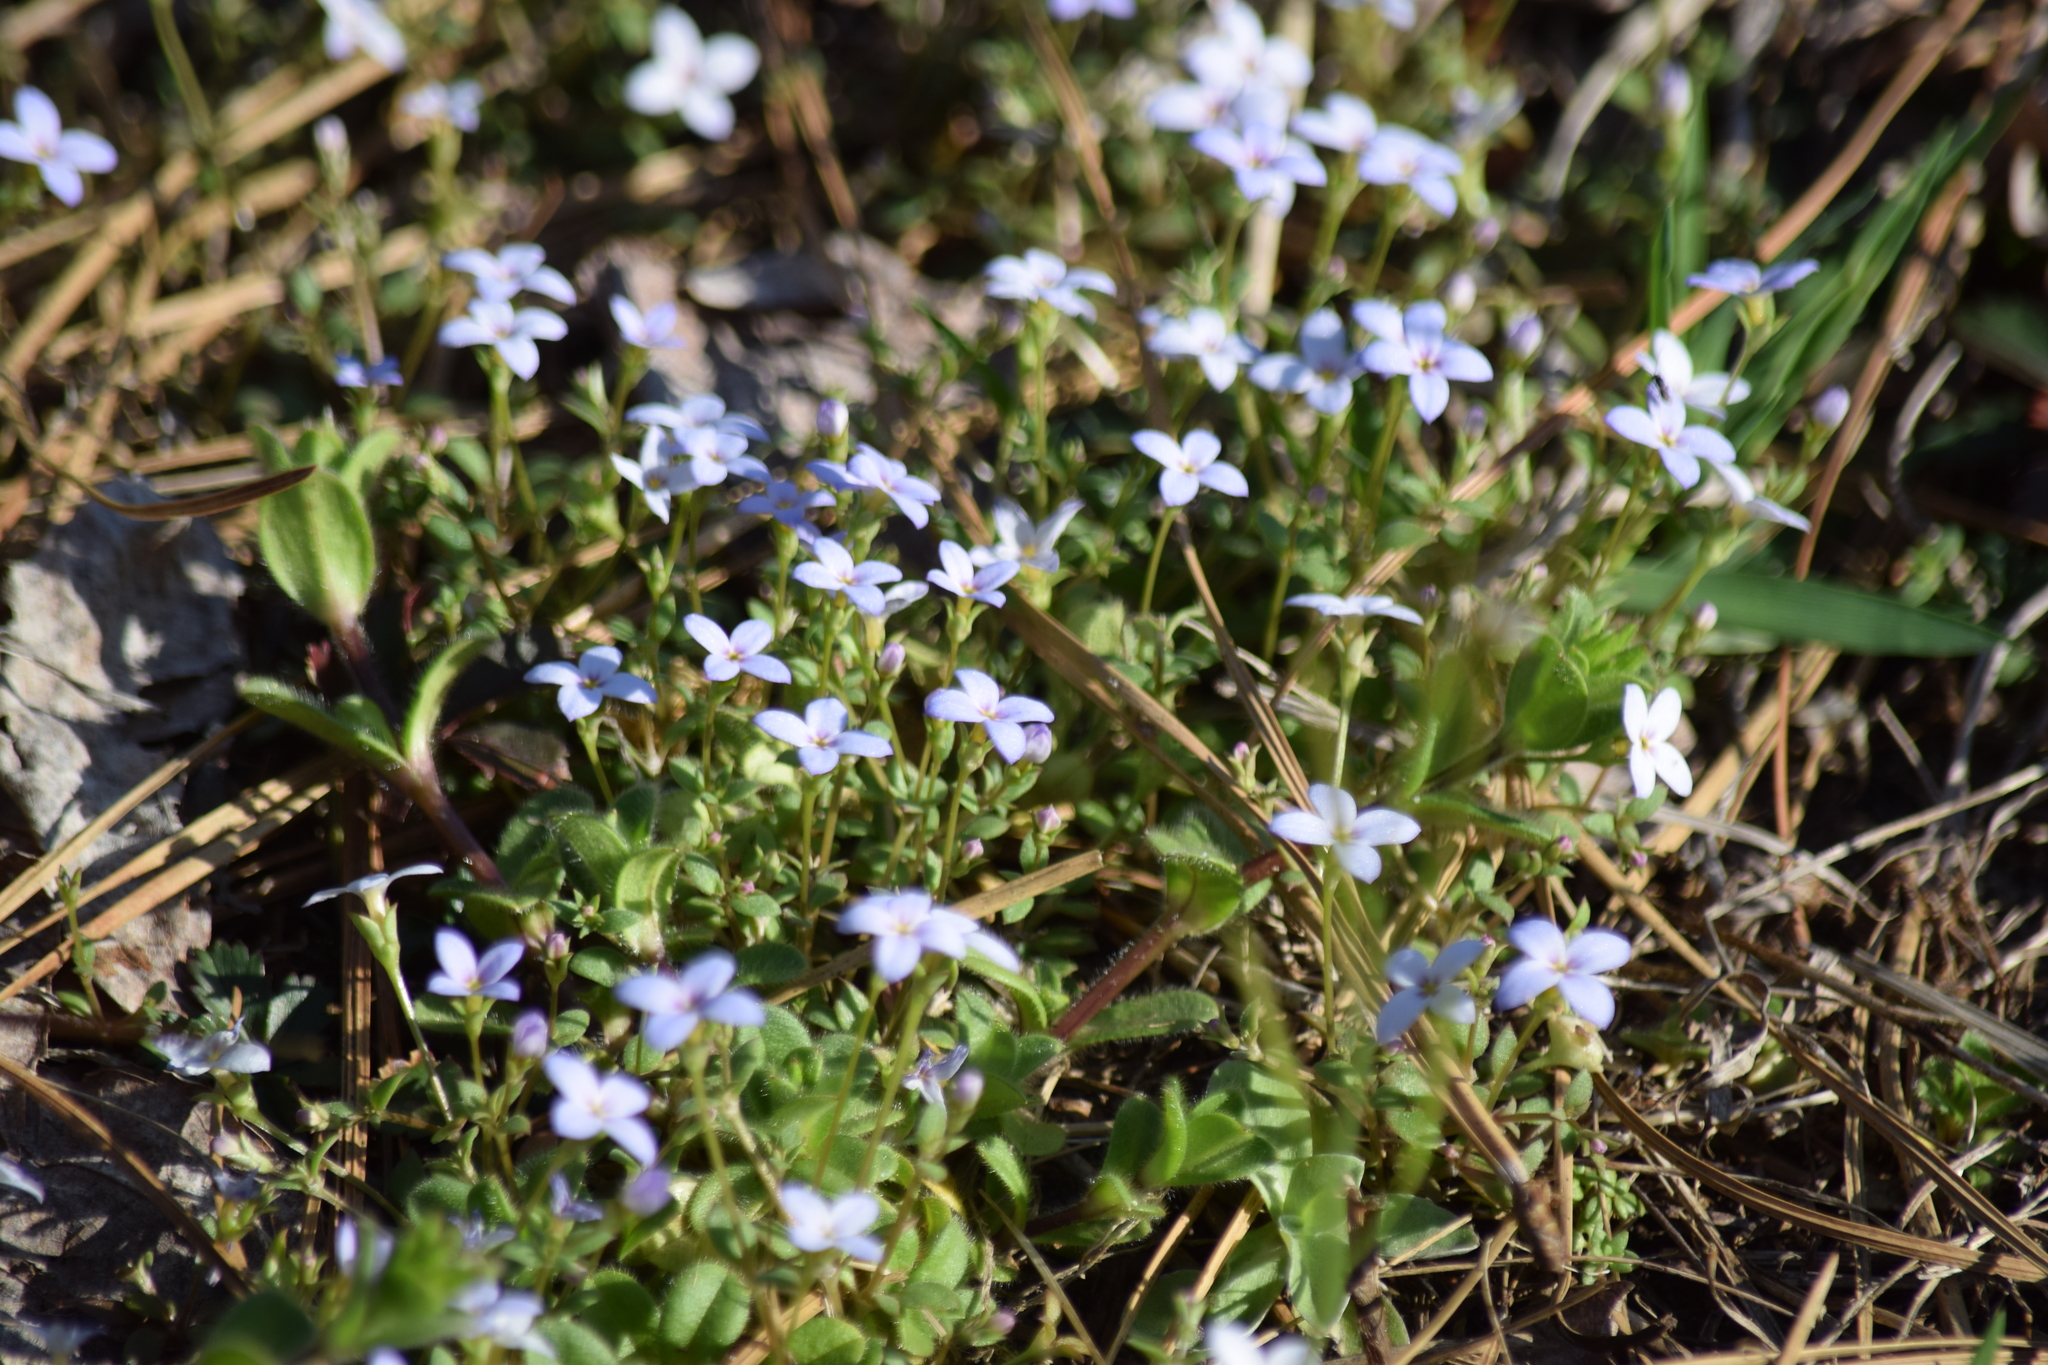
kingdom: Plantae
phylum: Tracheophyta
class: Magnoliopsida
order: Gentianales
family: Rubiaceae
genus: Houstonia
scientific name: Houstonia pusilla
